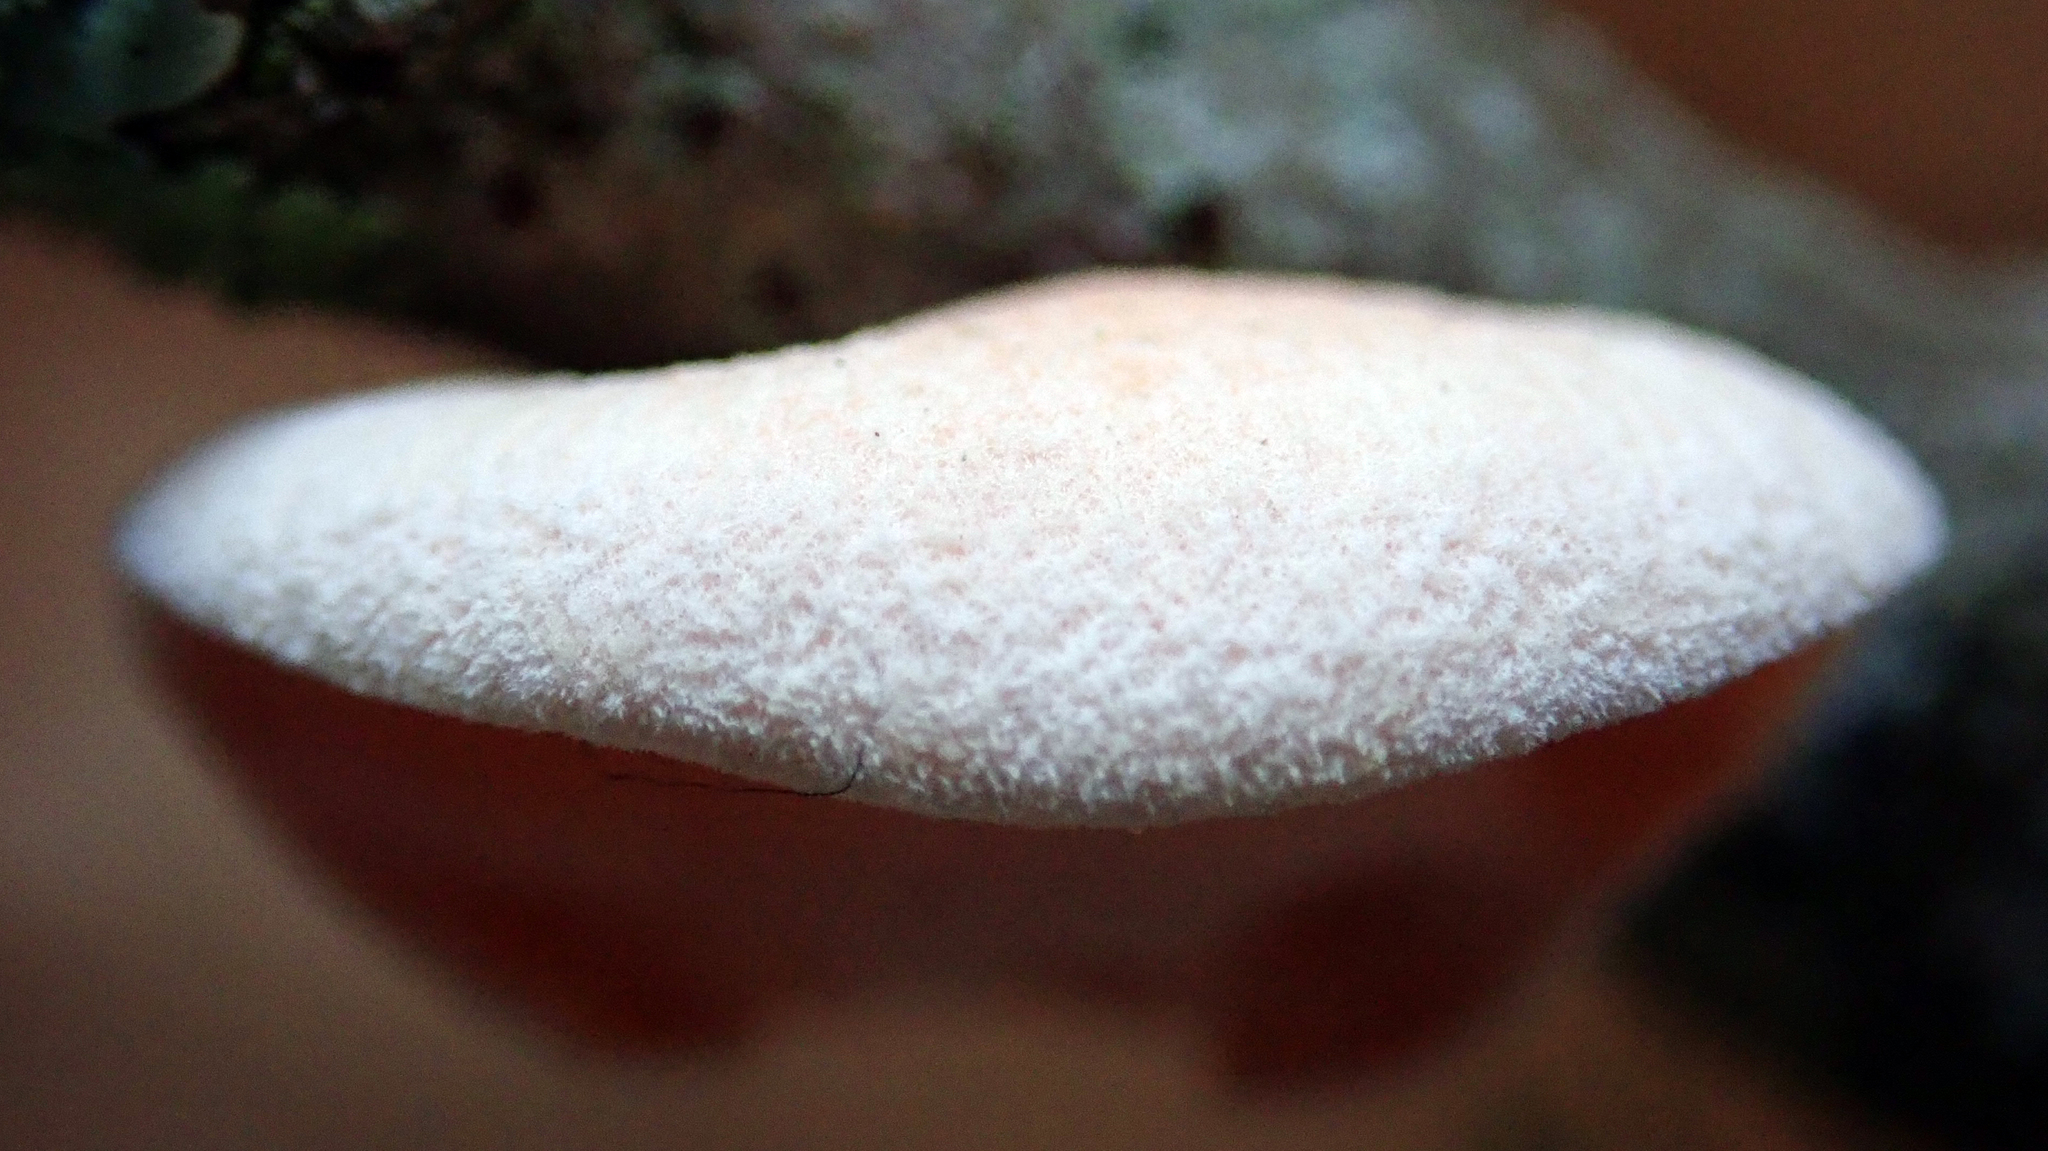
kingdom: Fungi
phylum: Basidiomycota
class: Agaricomycetes
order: Russulales
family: Stereaceae
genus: Gloeosoma
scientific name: Gloeosoma zealandicum
